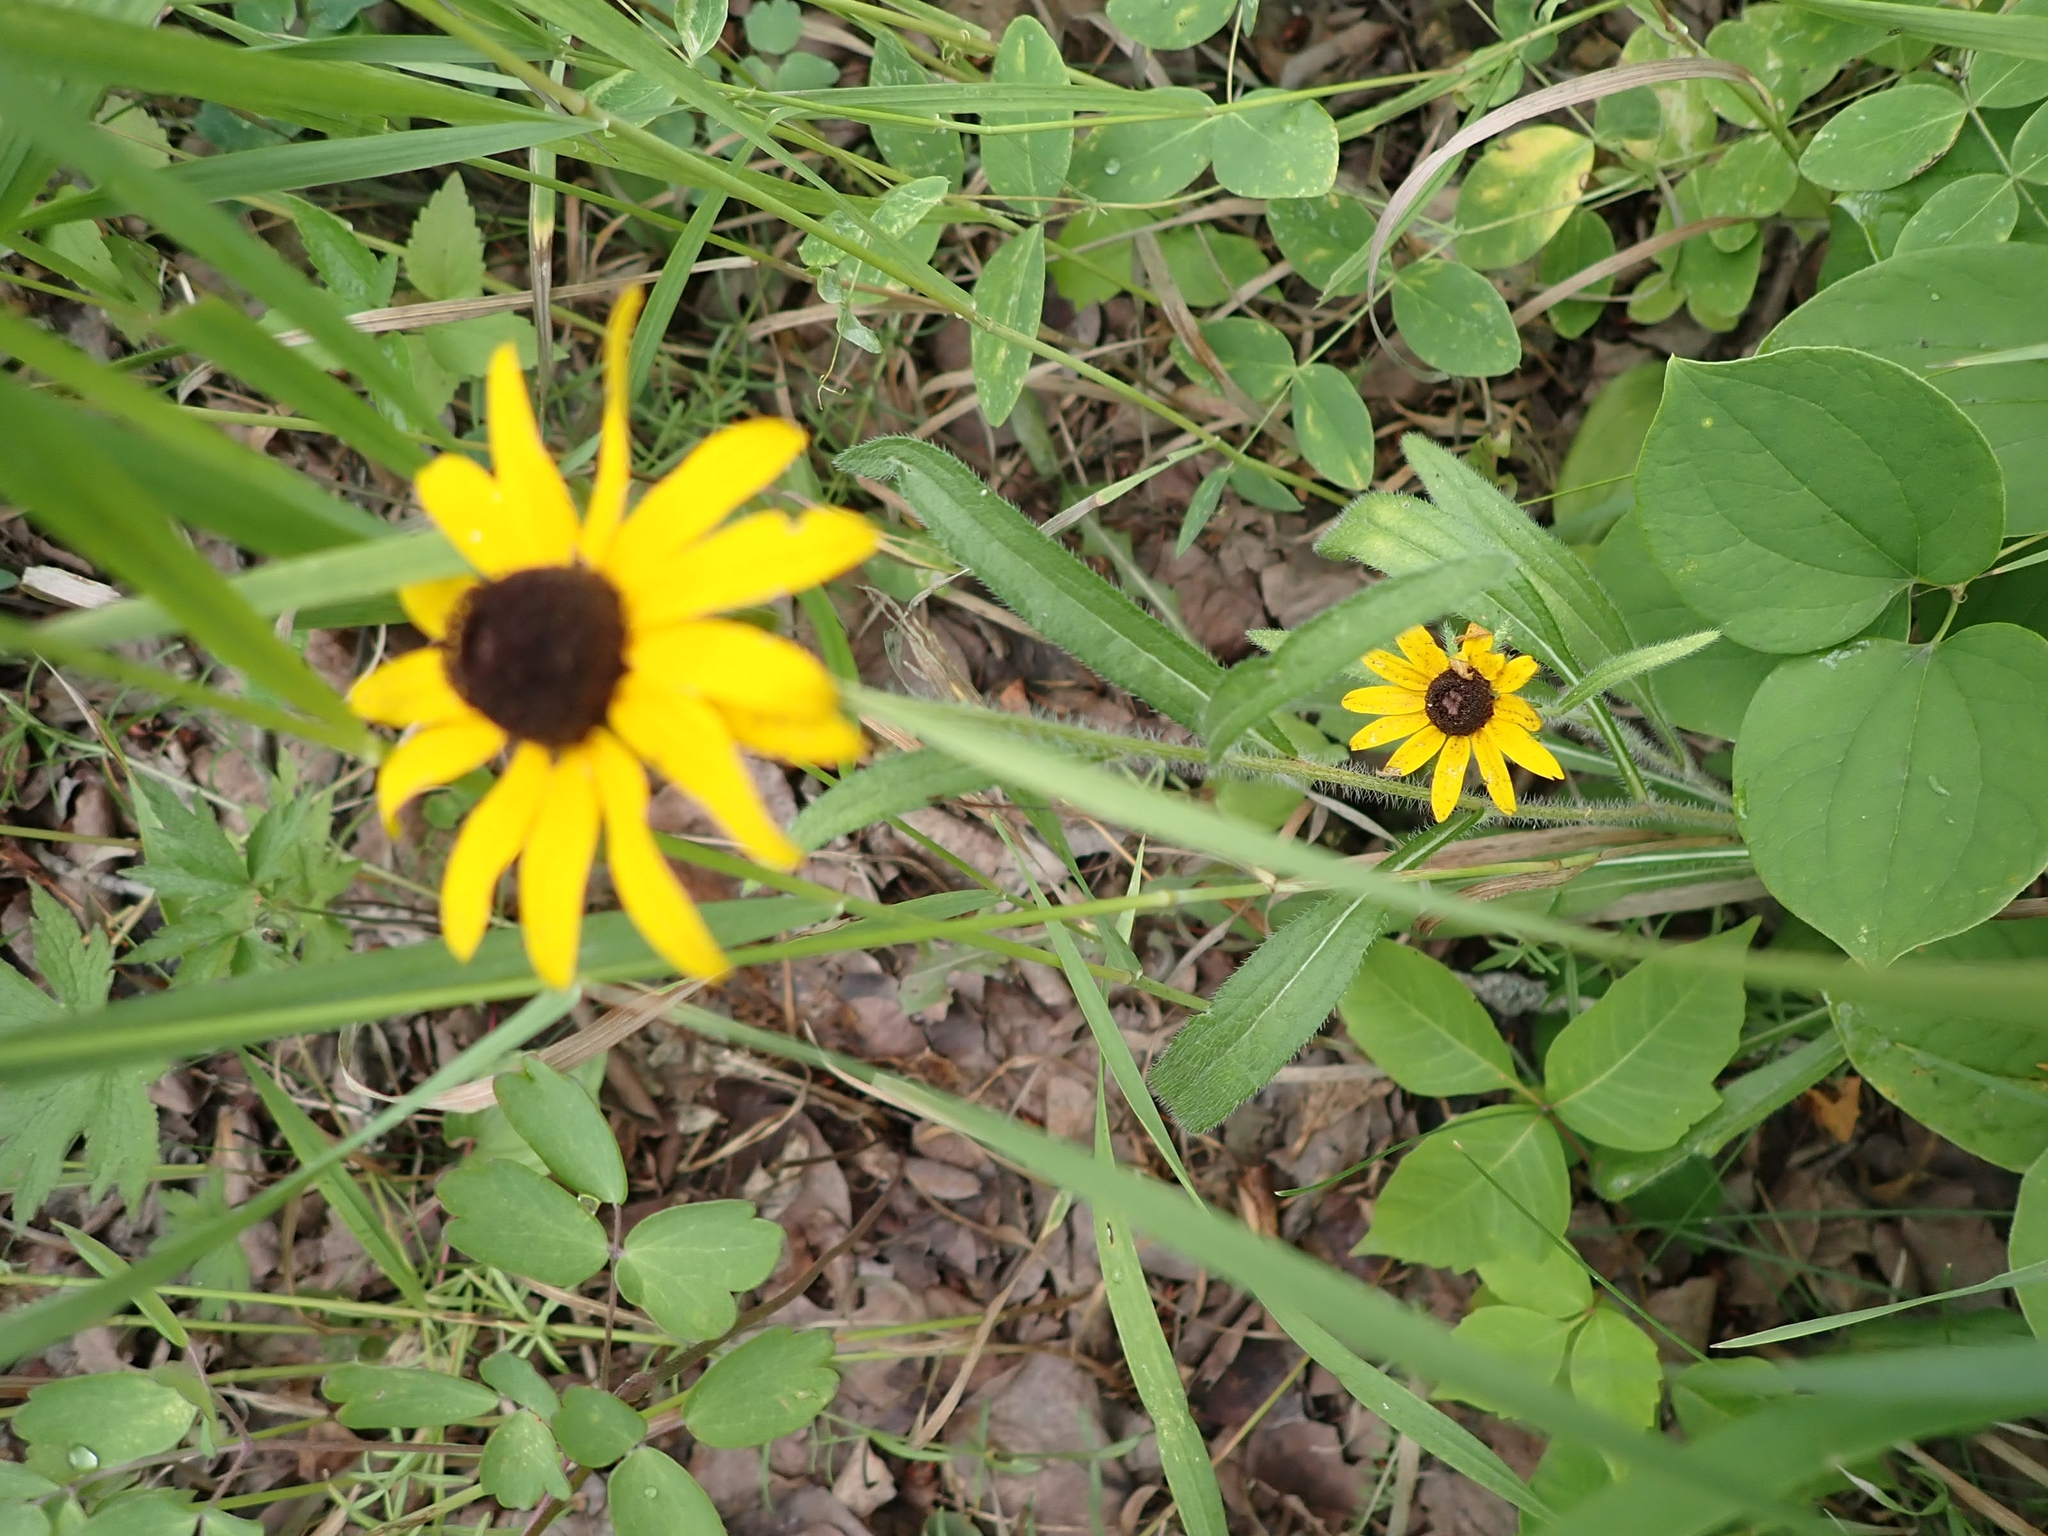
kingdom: Plantae
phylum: Tracheophyta
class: Magnoliopsida
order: Asterales
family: Asteraceae
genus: Rudbeckia
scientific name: Rudbeckia hirta
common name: Black-eyed-susan
